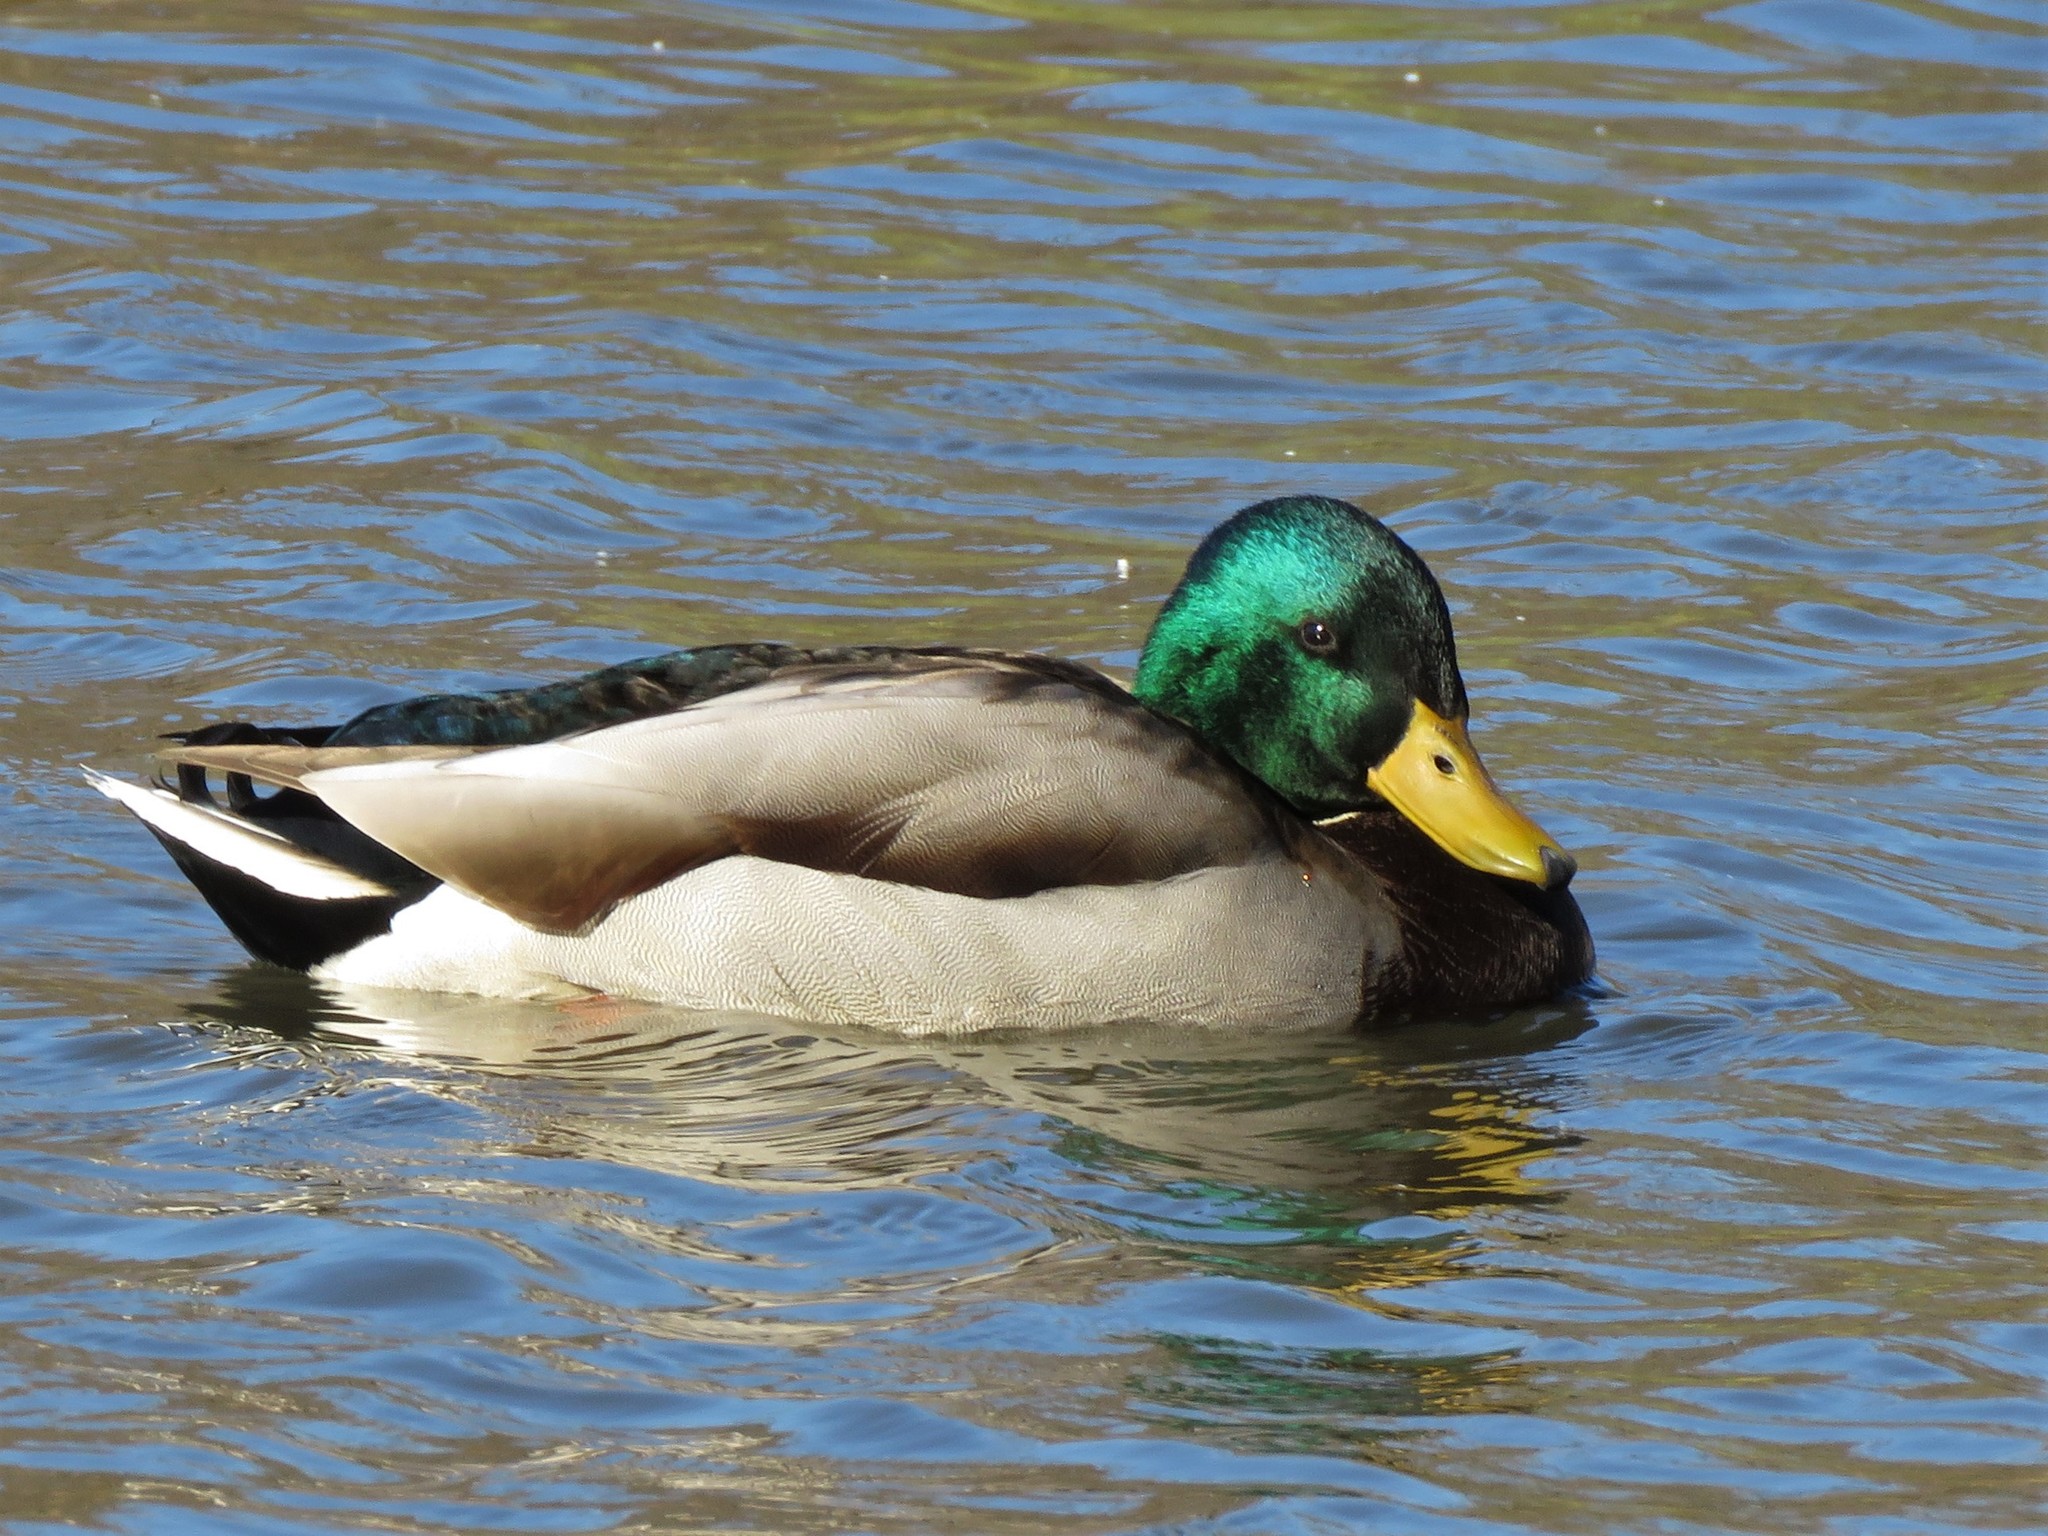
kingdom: Animalia
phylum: Chordata
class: Aves
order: Anseriformes
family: Anatidae
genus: Anas
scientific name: Anas platyrhynchos
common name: Mallard
